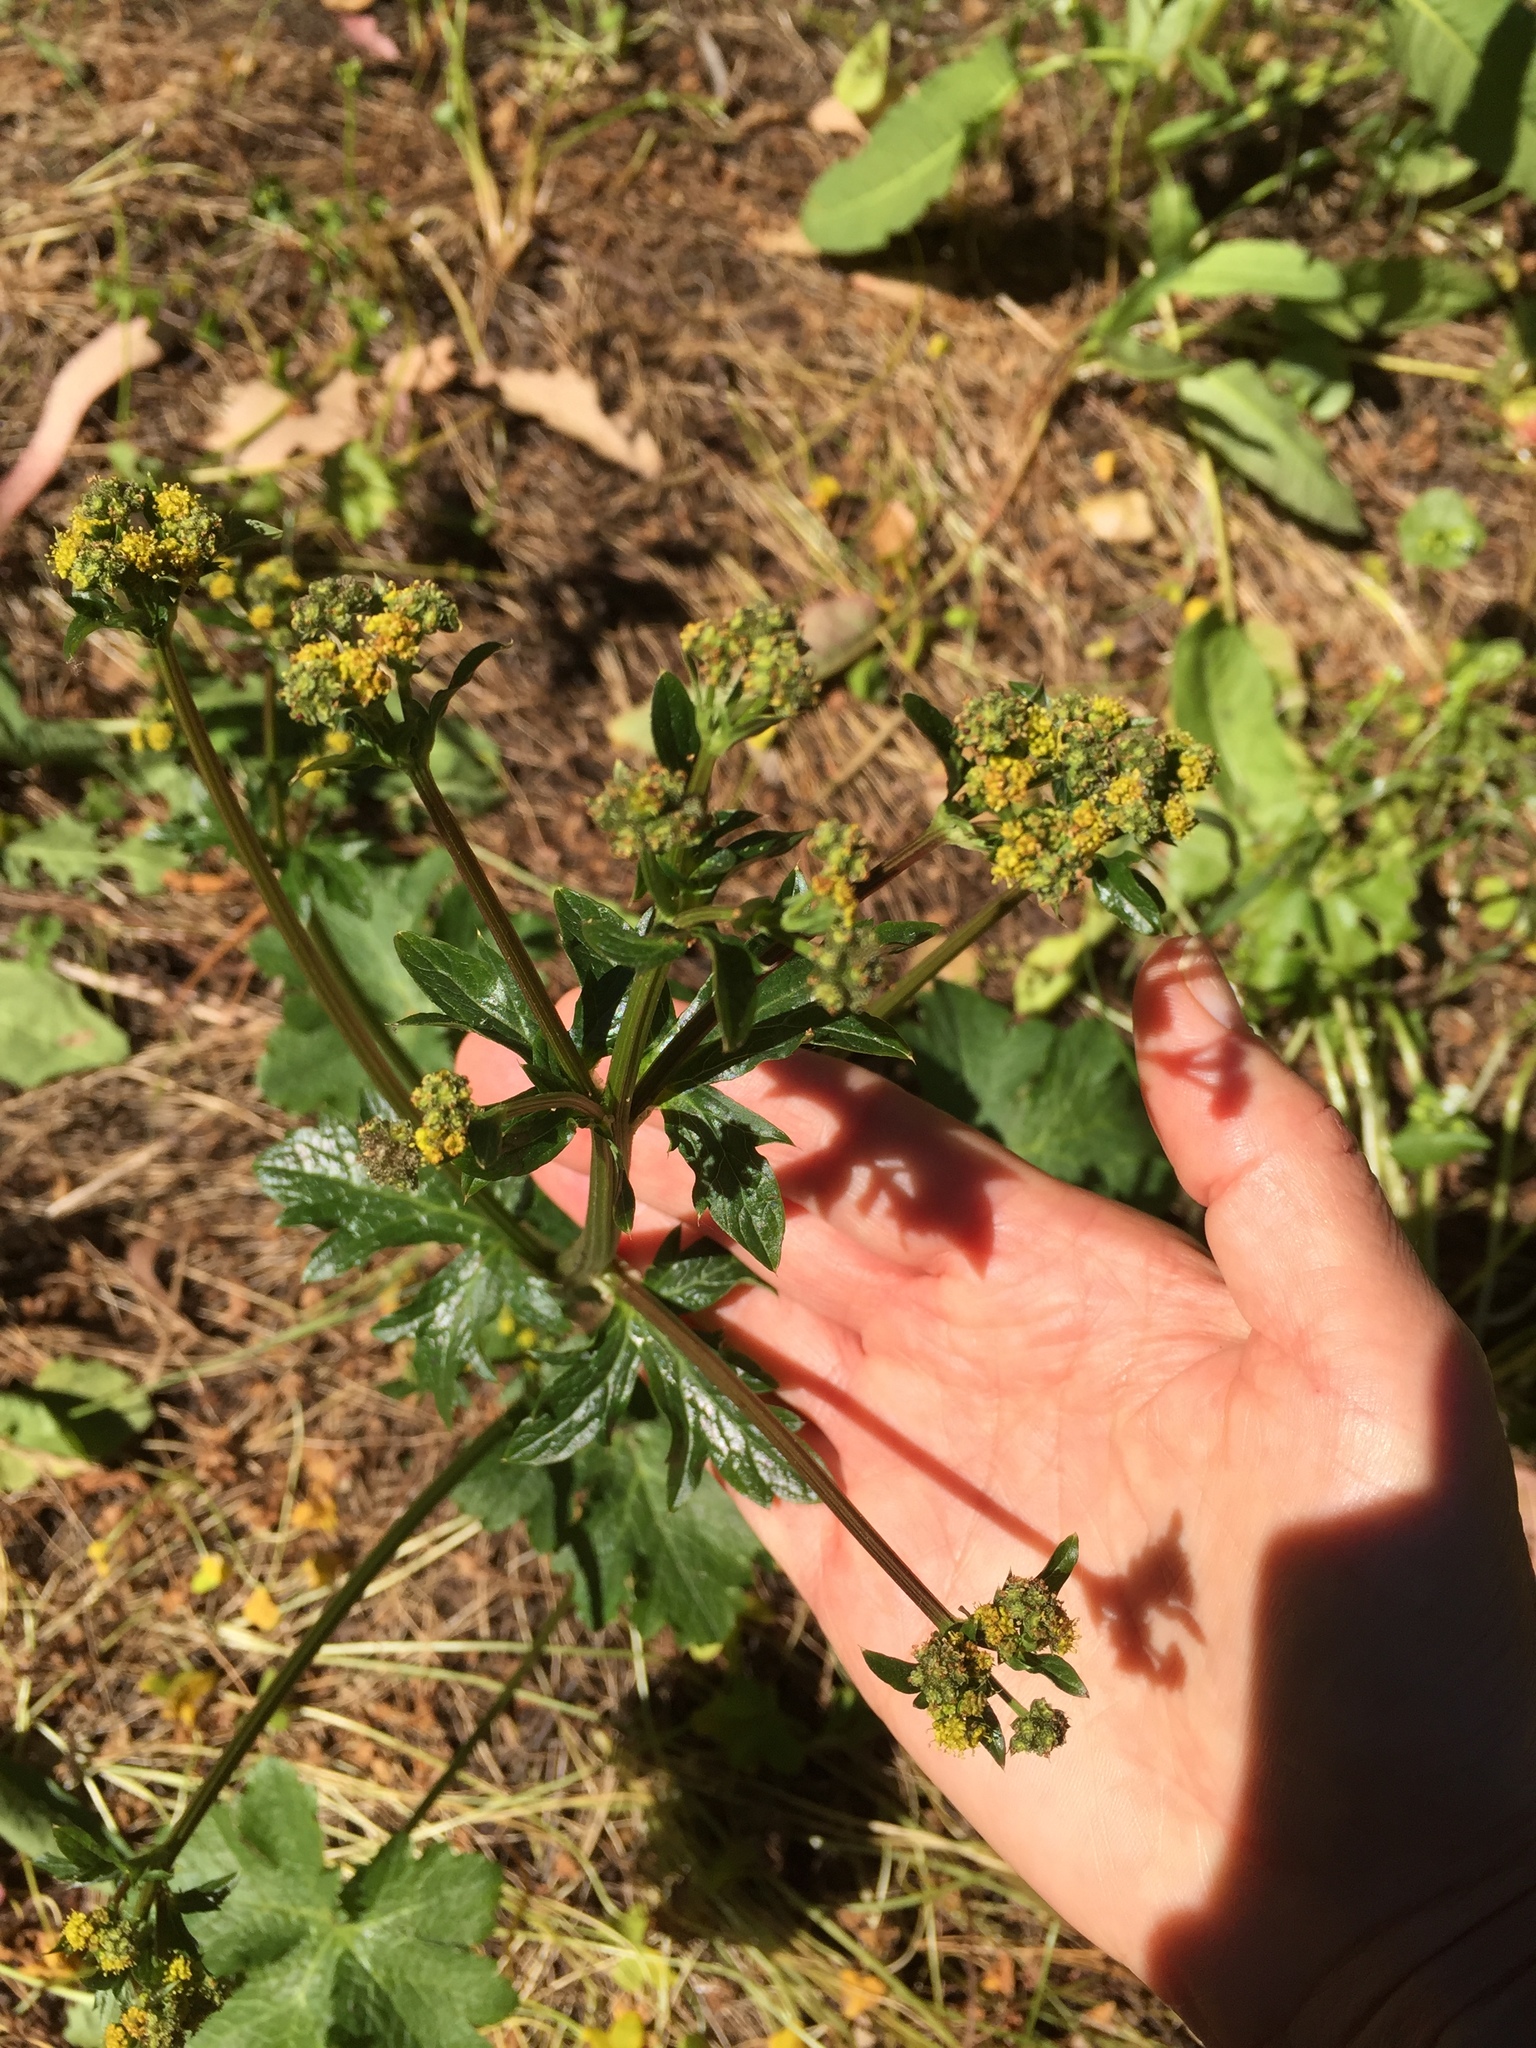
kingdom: Plantae
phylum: Tracheophyta
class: Magnoliopsida
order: Apiales
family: Apiaceae
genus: Sanicula
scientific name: Sanicula crassicaulis
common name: Western snakeroot
